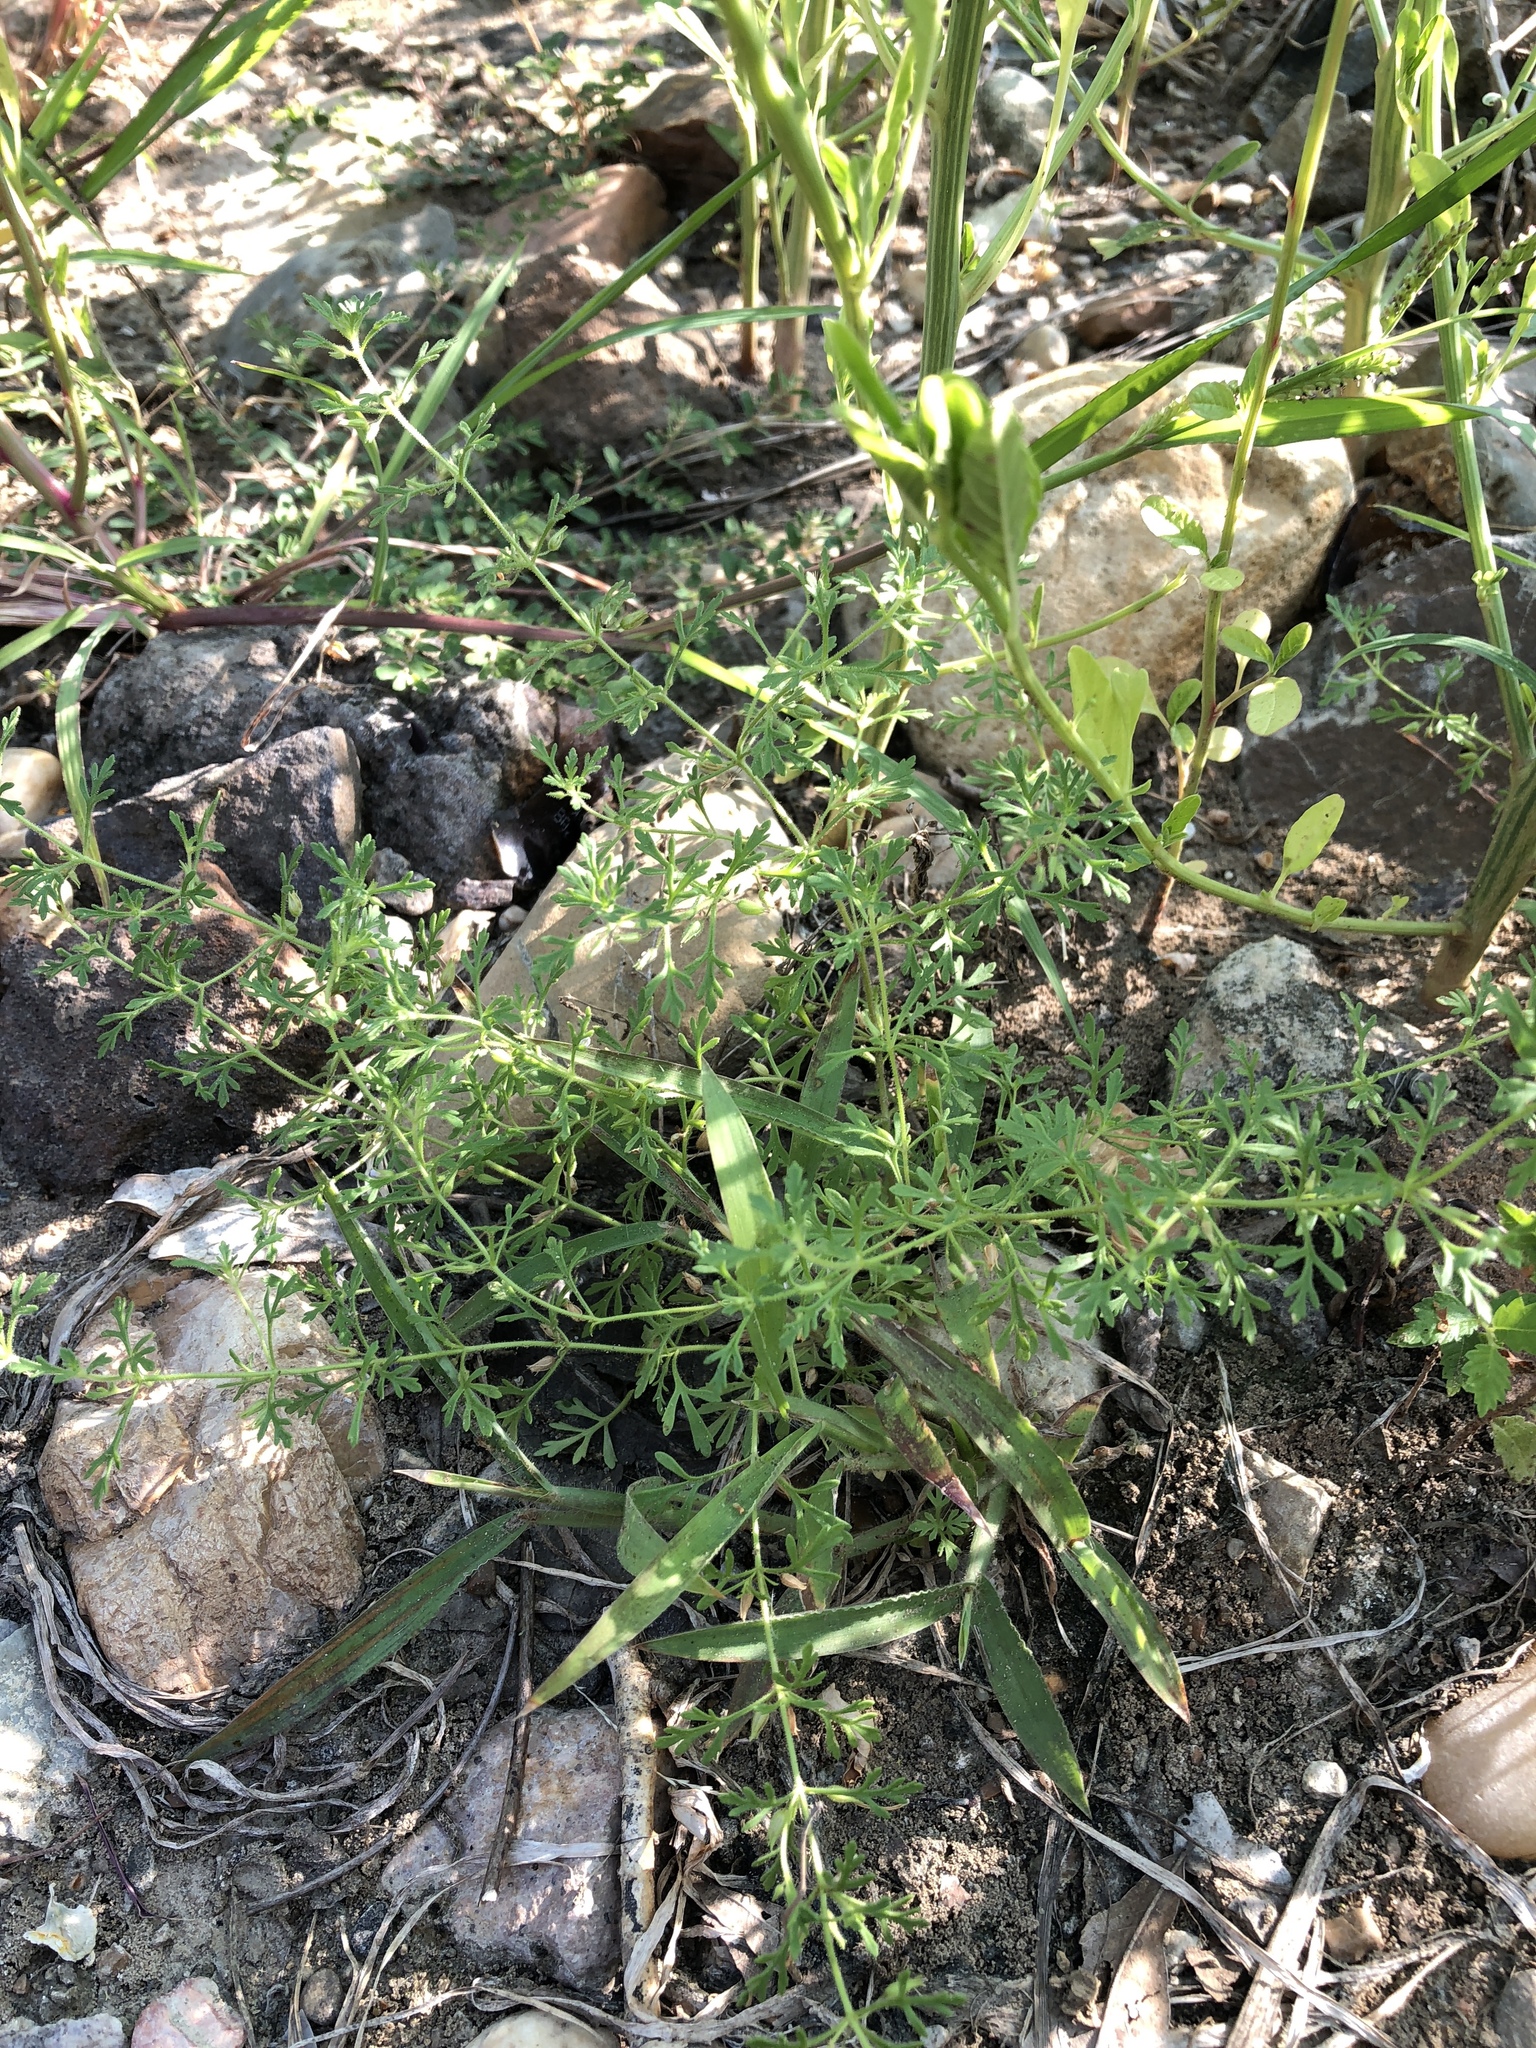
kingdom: Plantae
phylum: Tracheophyta
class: Magnoliopsida
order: Lamiales
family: Plantaginaceae
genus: Leucospora
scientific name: Leucospora multifida
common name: Narrow-leaf paleseed
